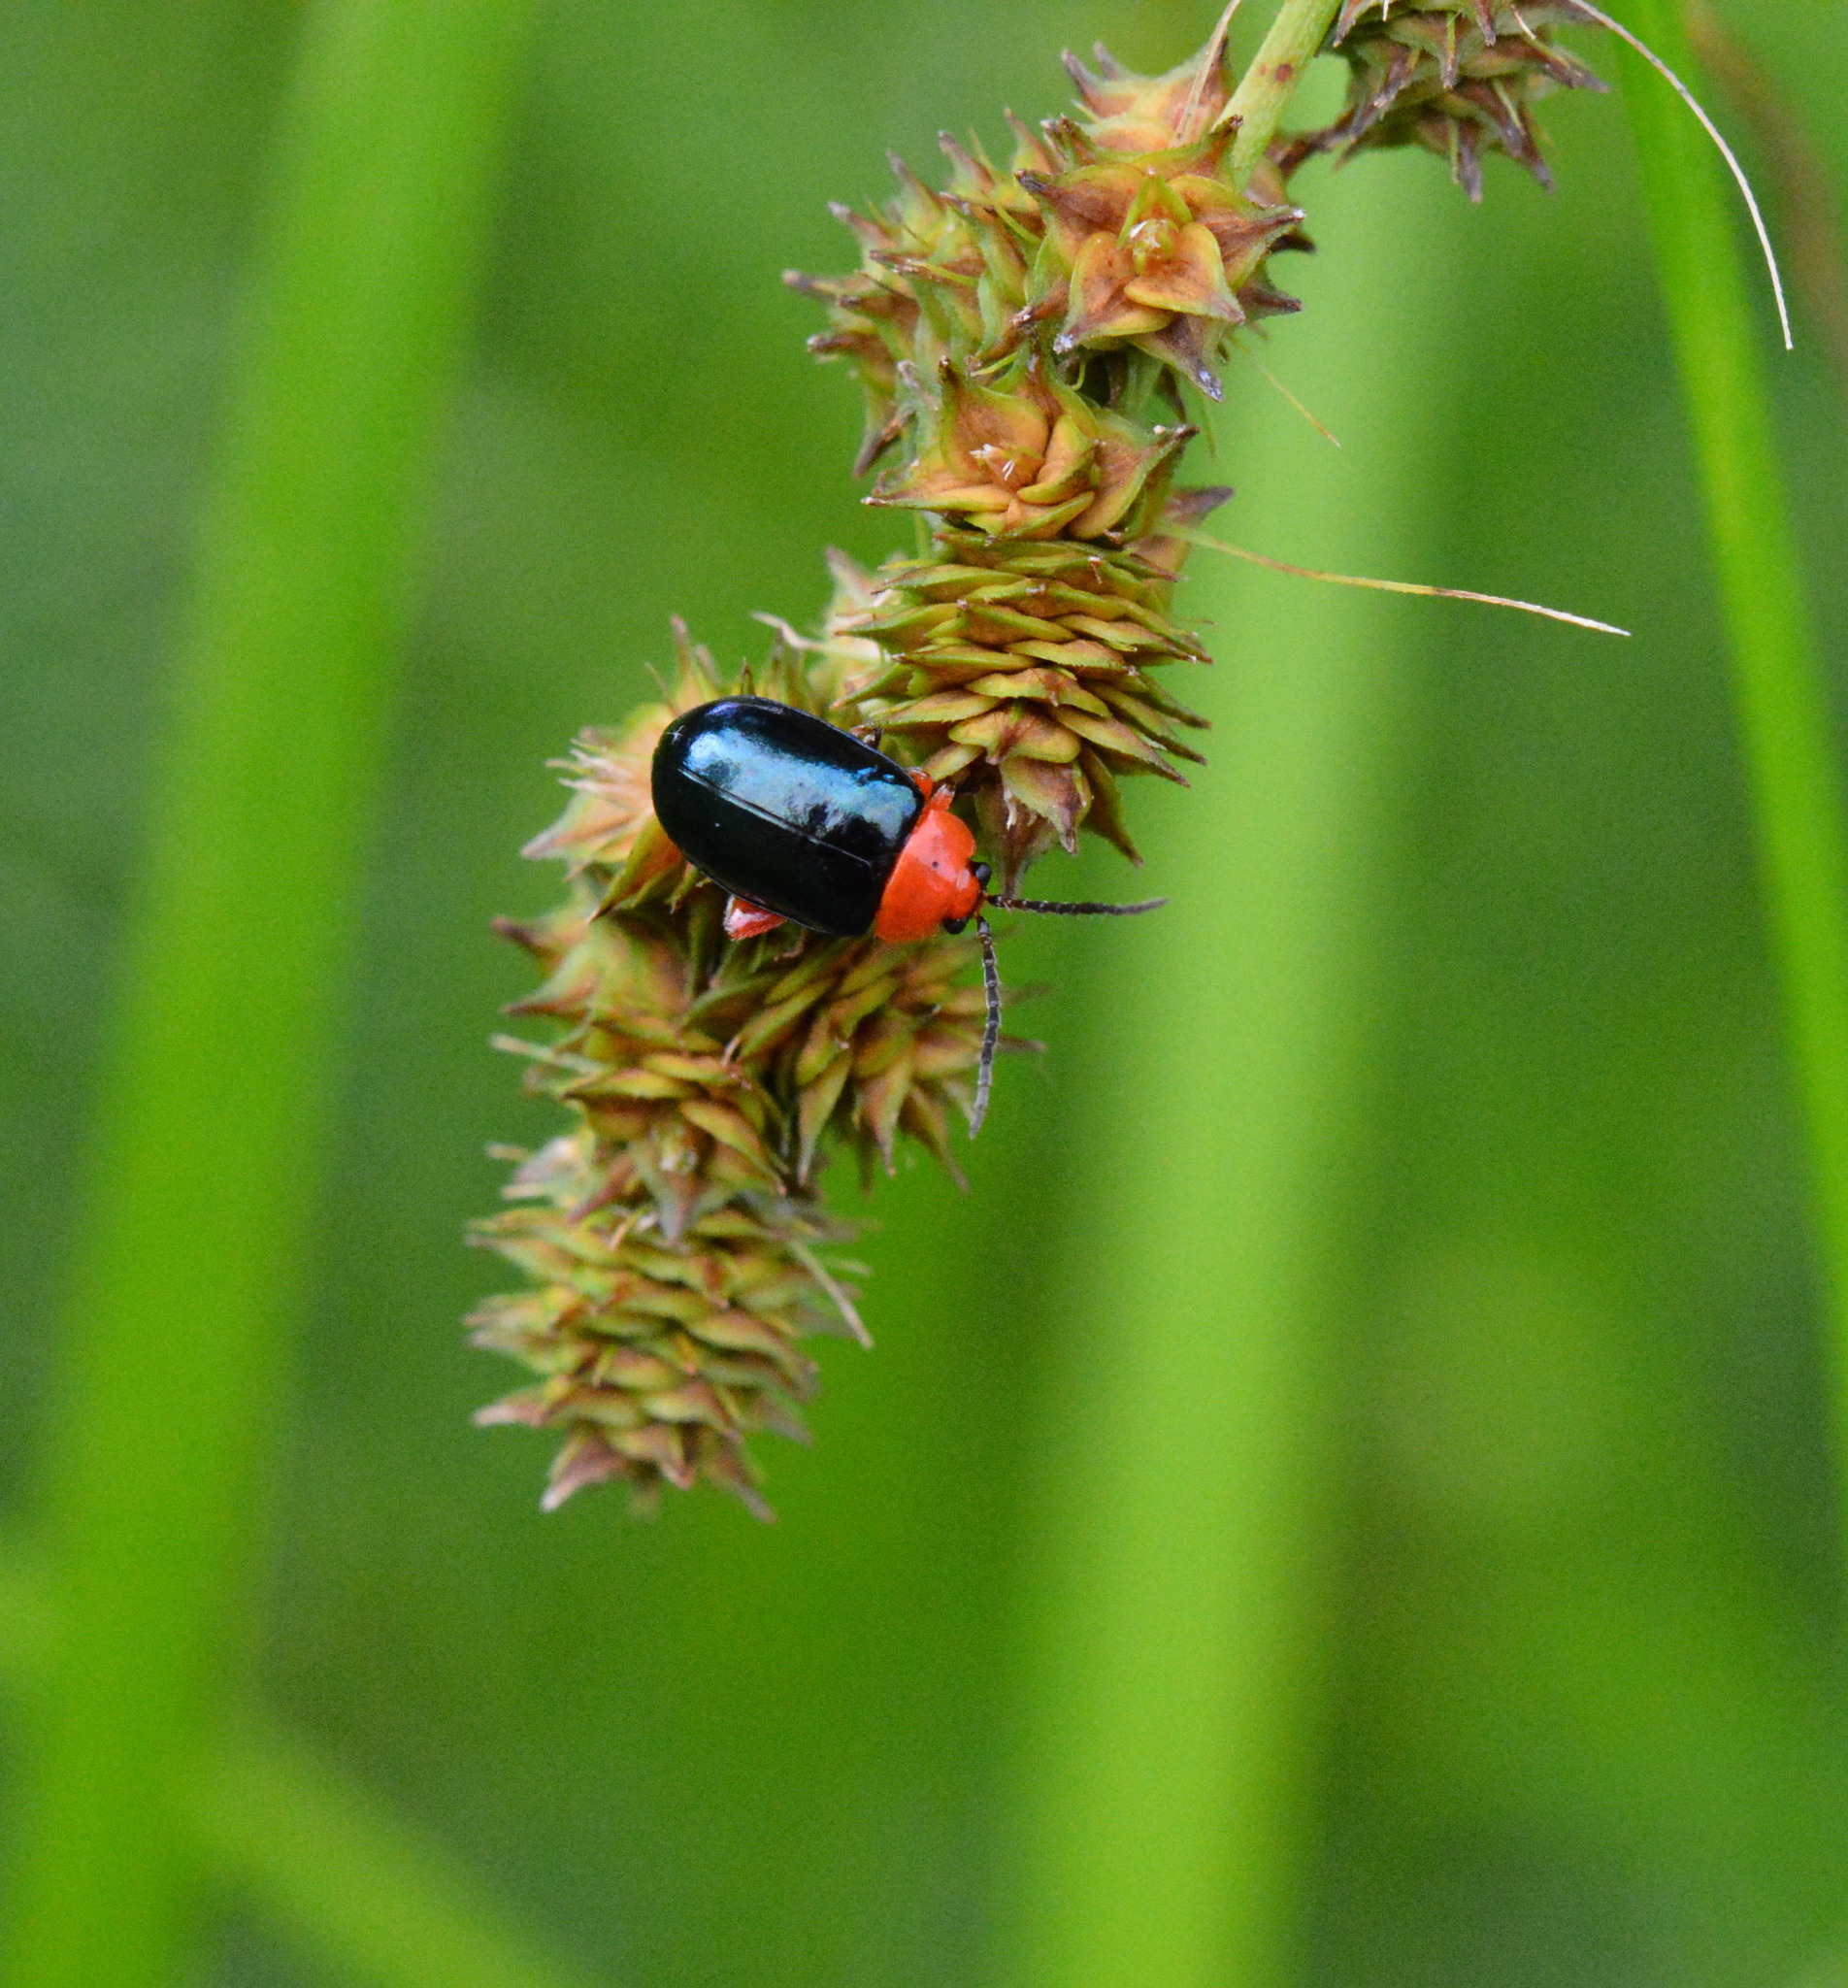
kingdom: Animalia
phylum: Arthropoda
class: Insecta
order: Coleoptera
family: Chrysomelidae
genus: Asphaera
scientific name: Asphaera lustrans
